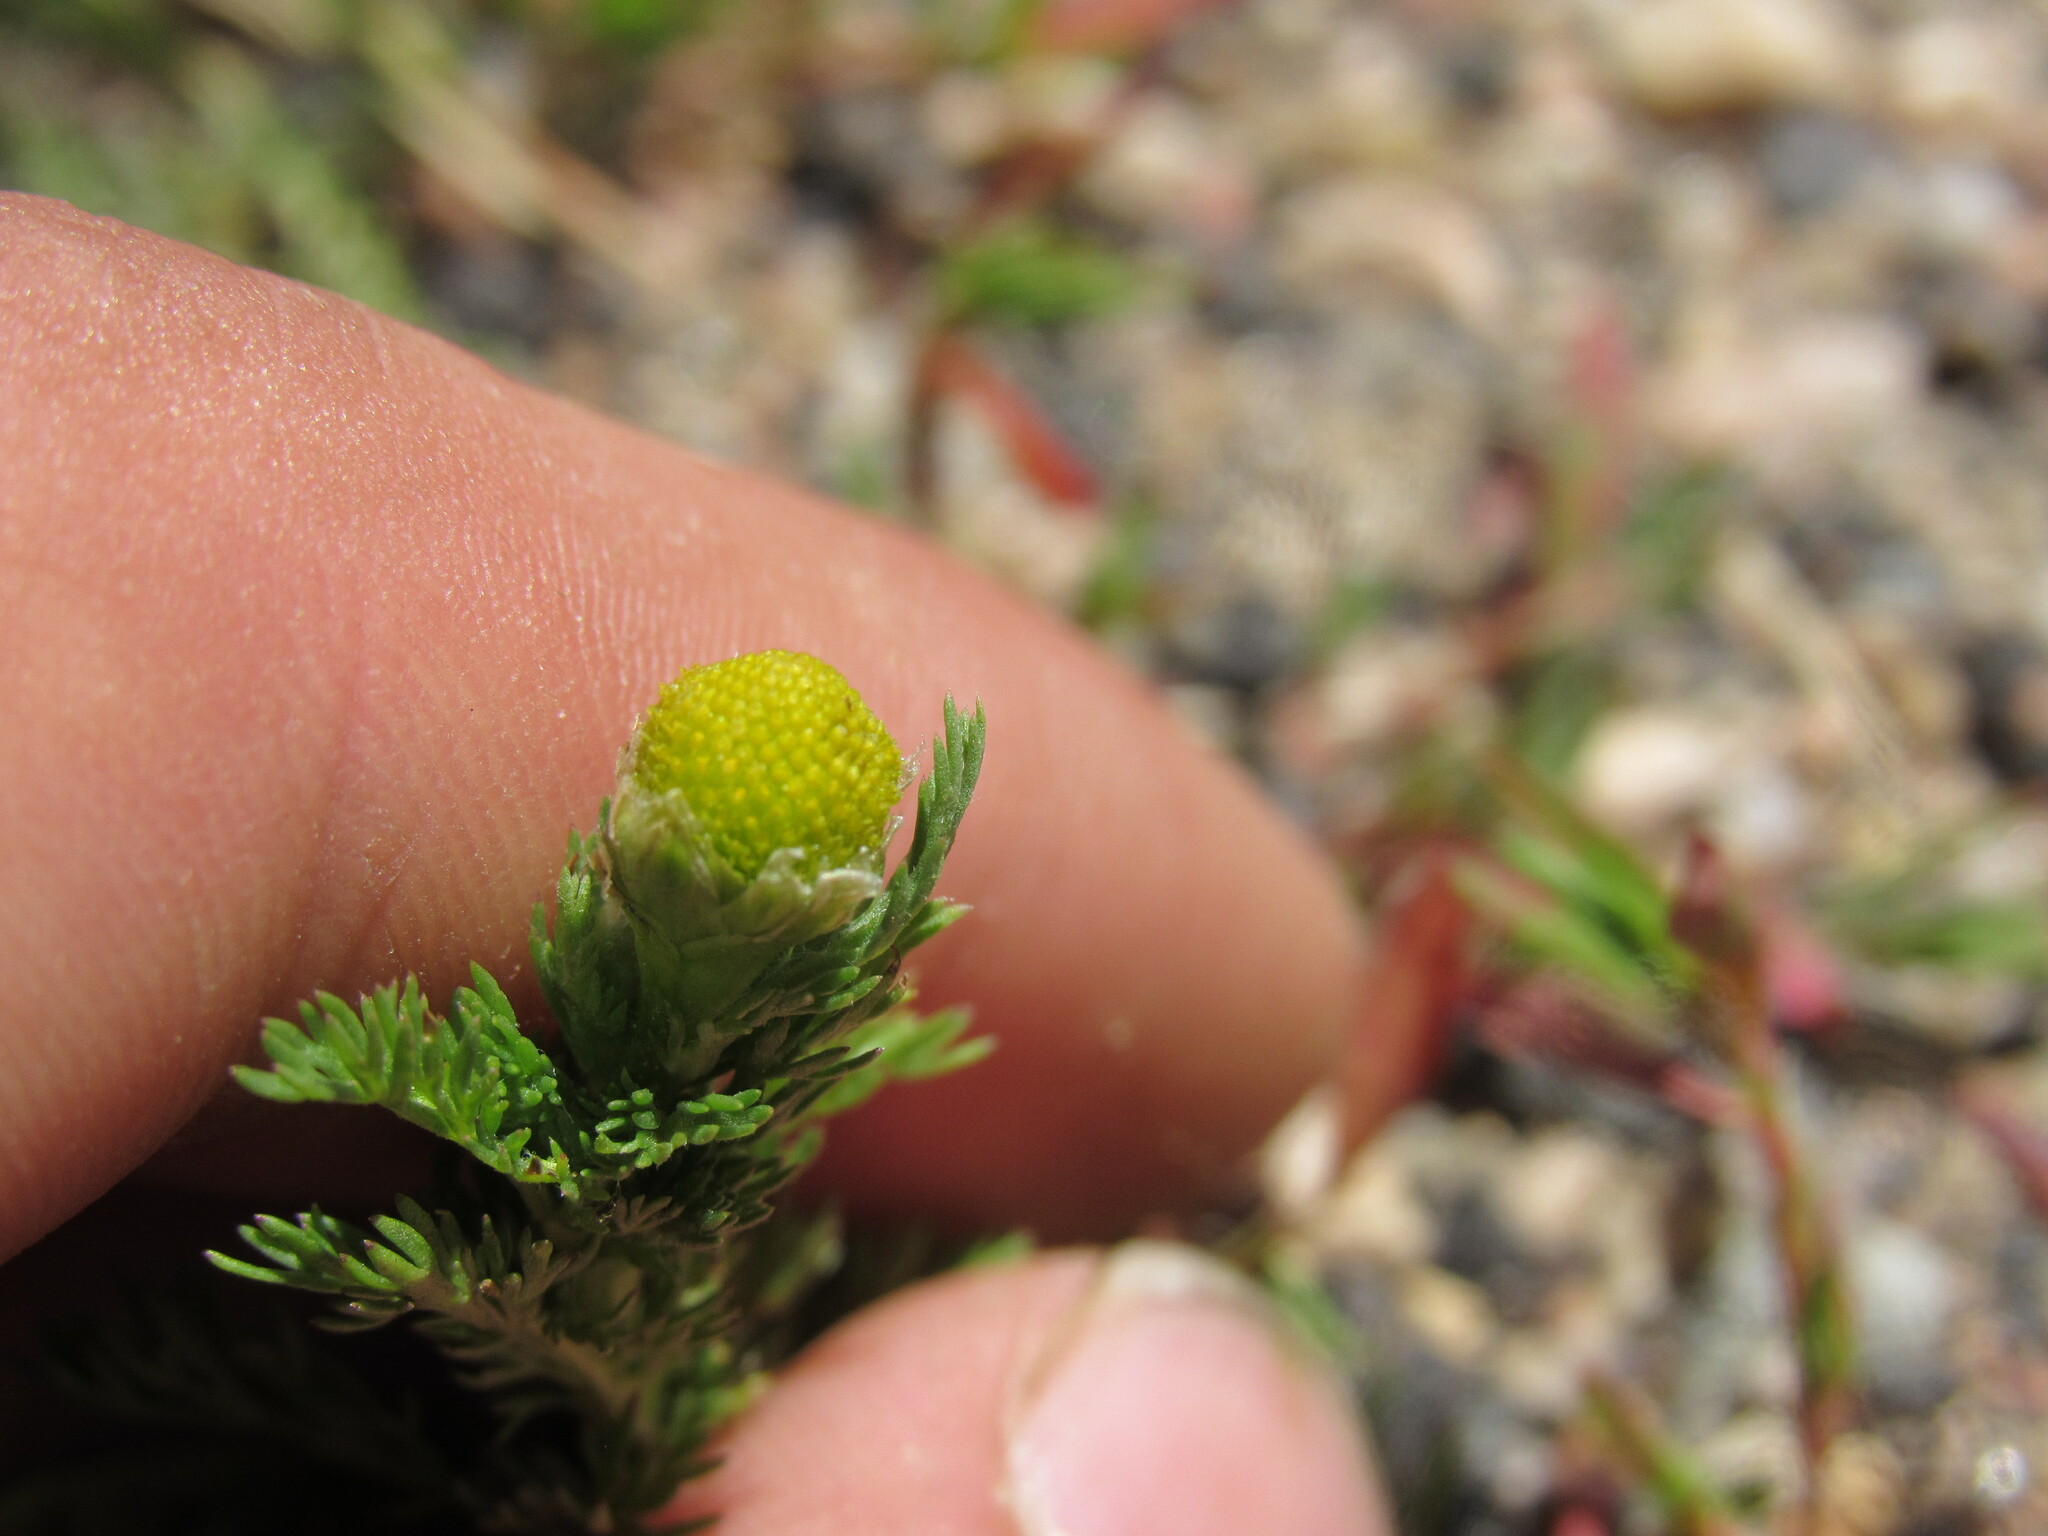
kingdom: Plantae
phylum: Tracheophyta
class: Magnoliopsida
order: Asterales
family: Asteraceae
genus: Matricaria
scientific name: Matricaria discoidea
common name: Disc mayweed
